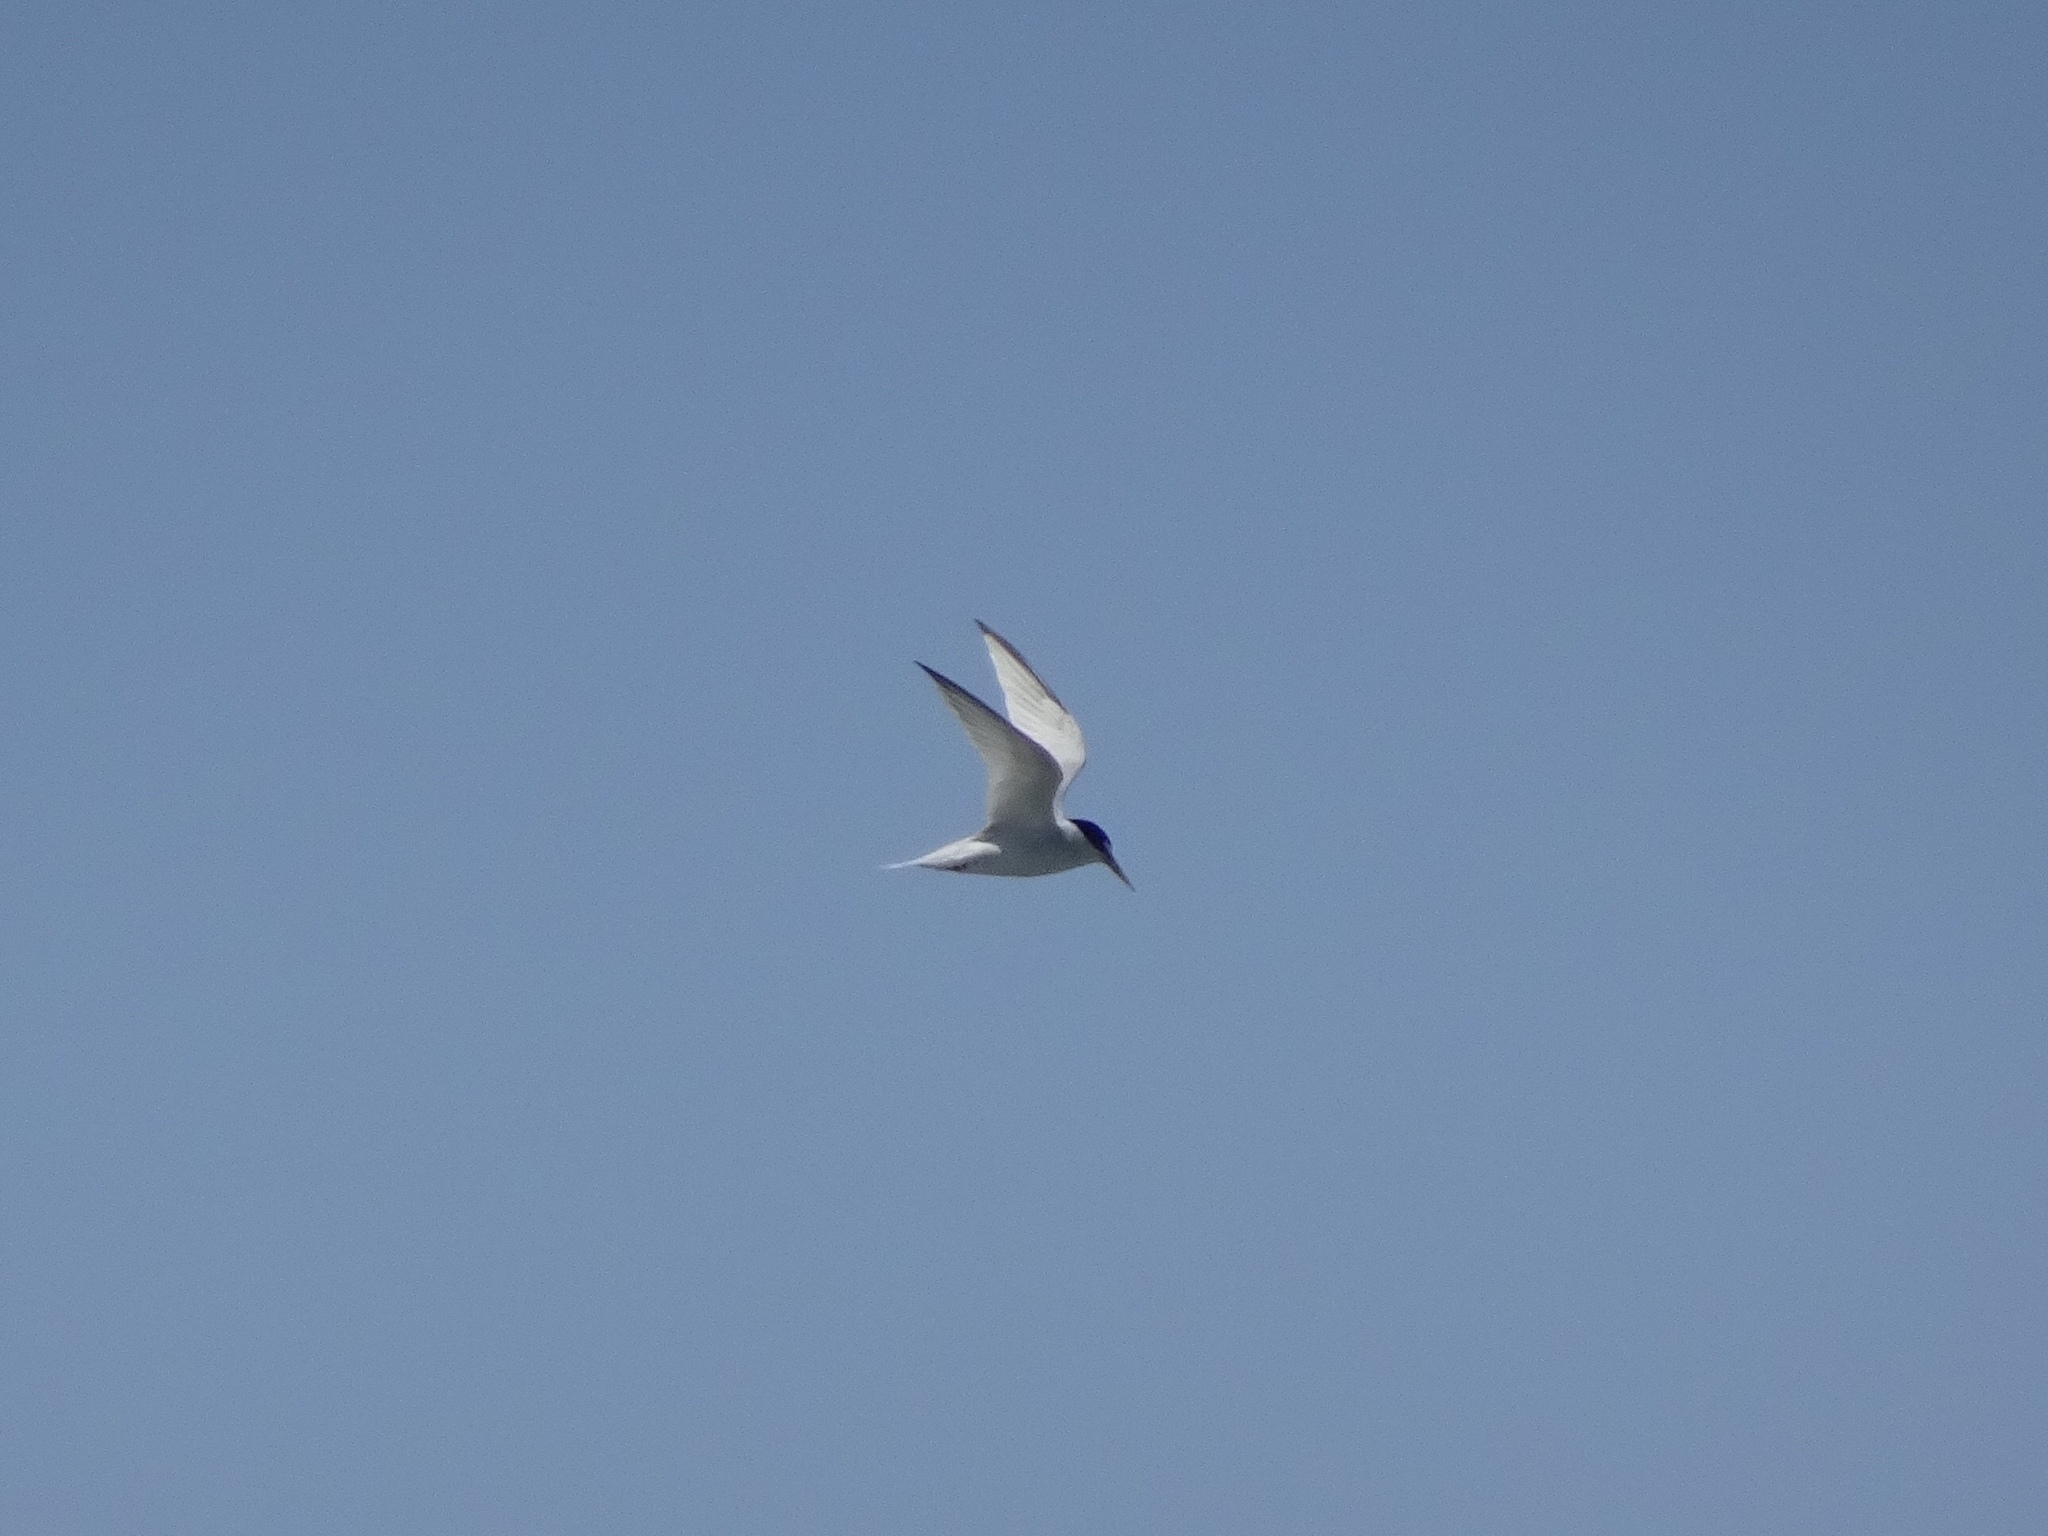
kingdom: Animalia
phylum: Chordata
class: Aves
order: Charadriiformes
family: Laridae
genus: Sternula
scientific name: Sternula antillarum
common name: Least tern
